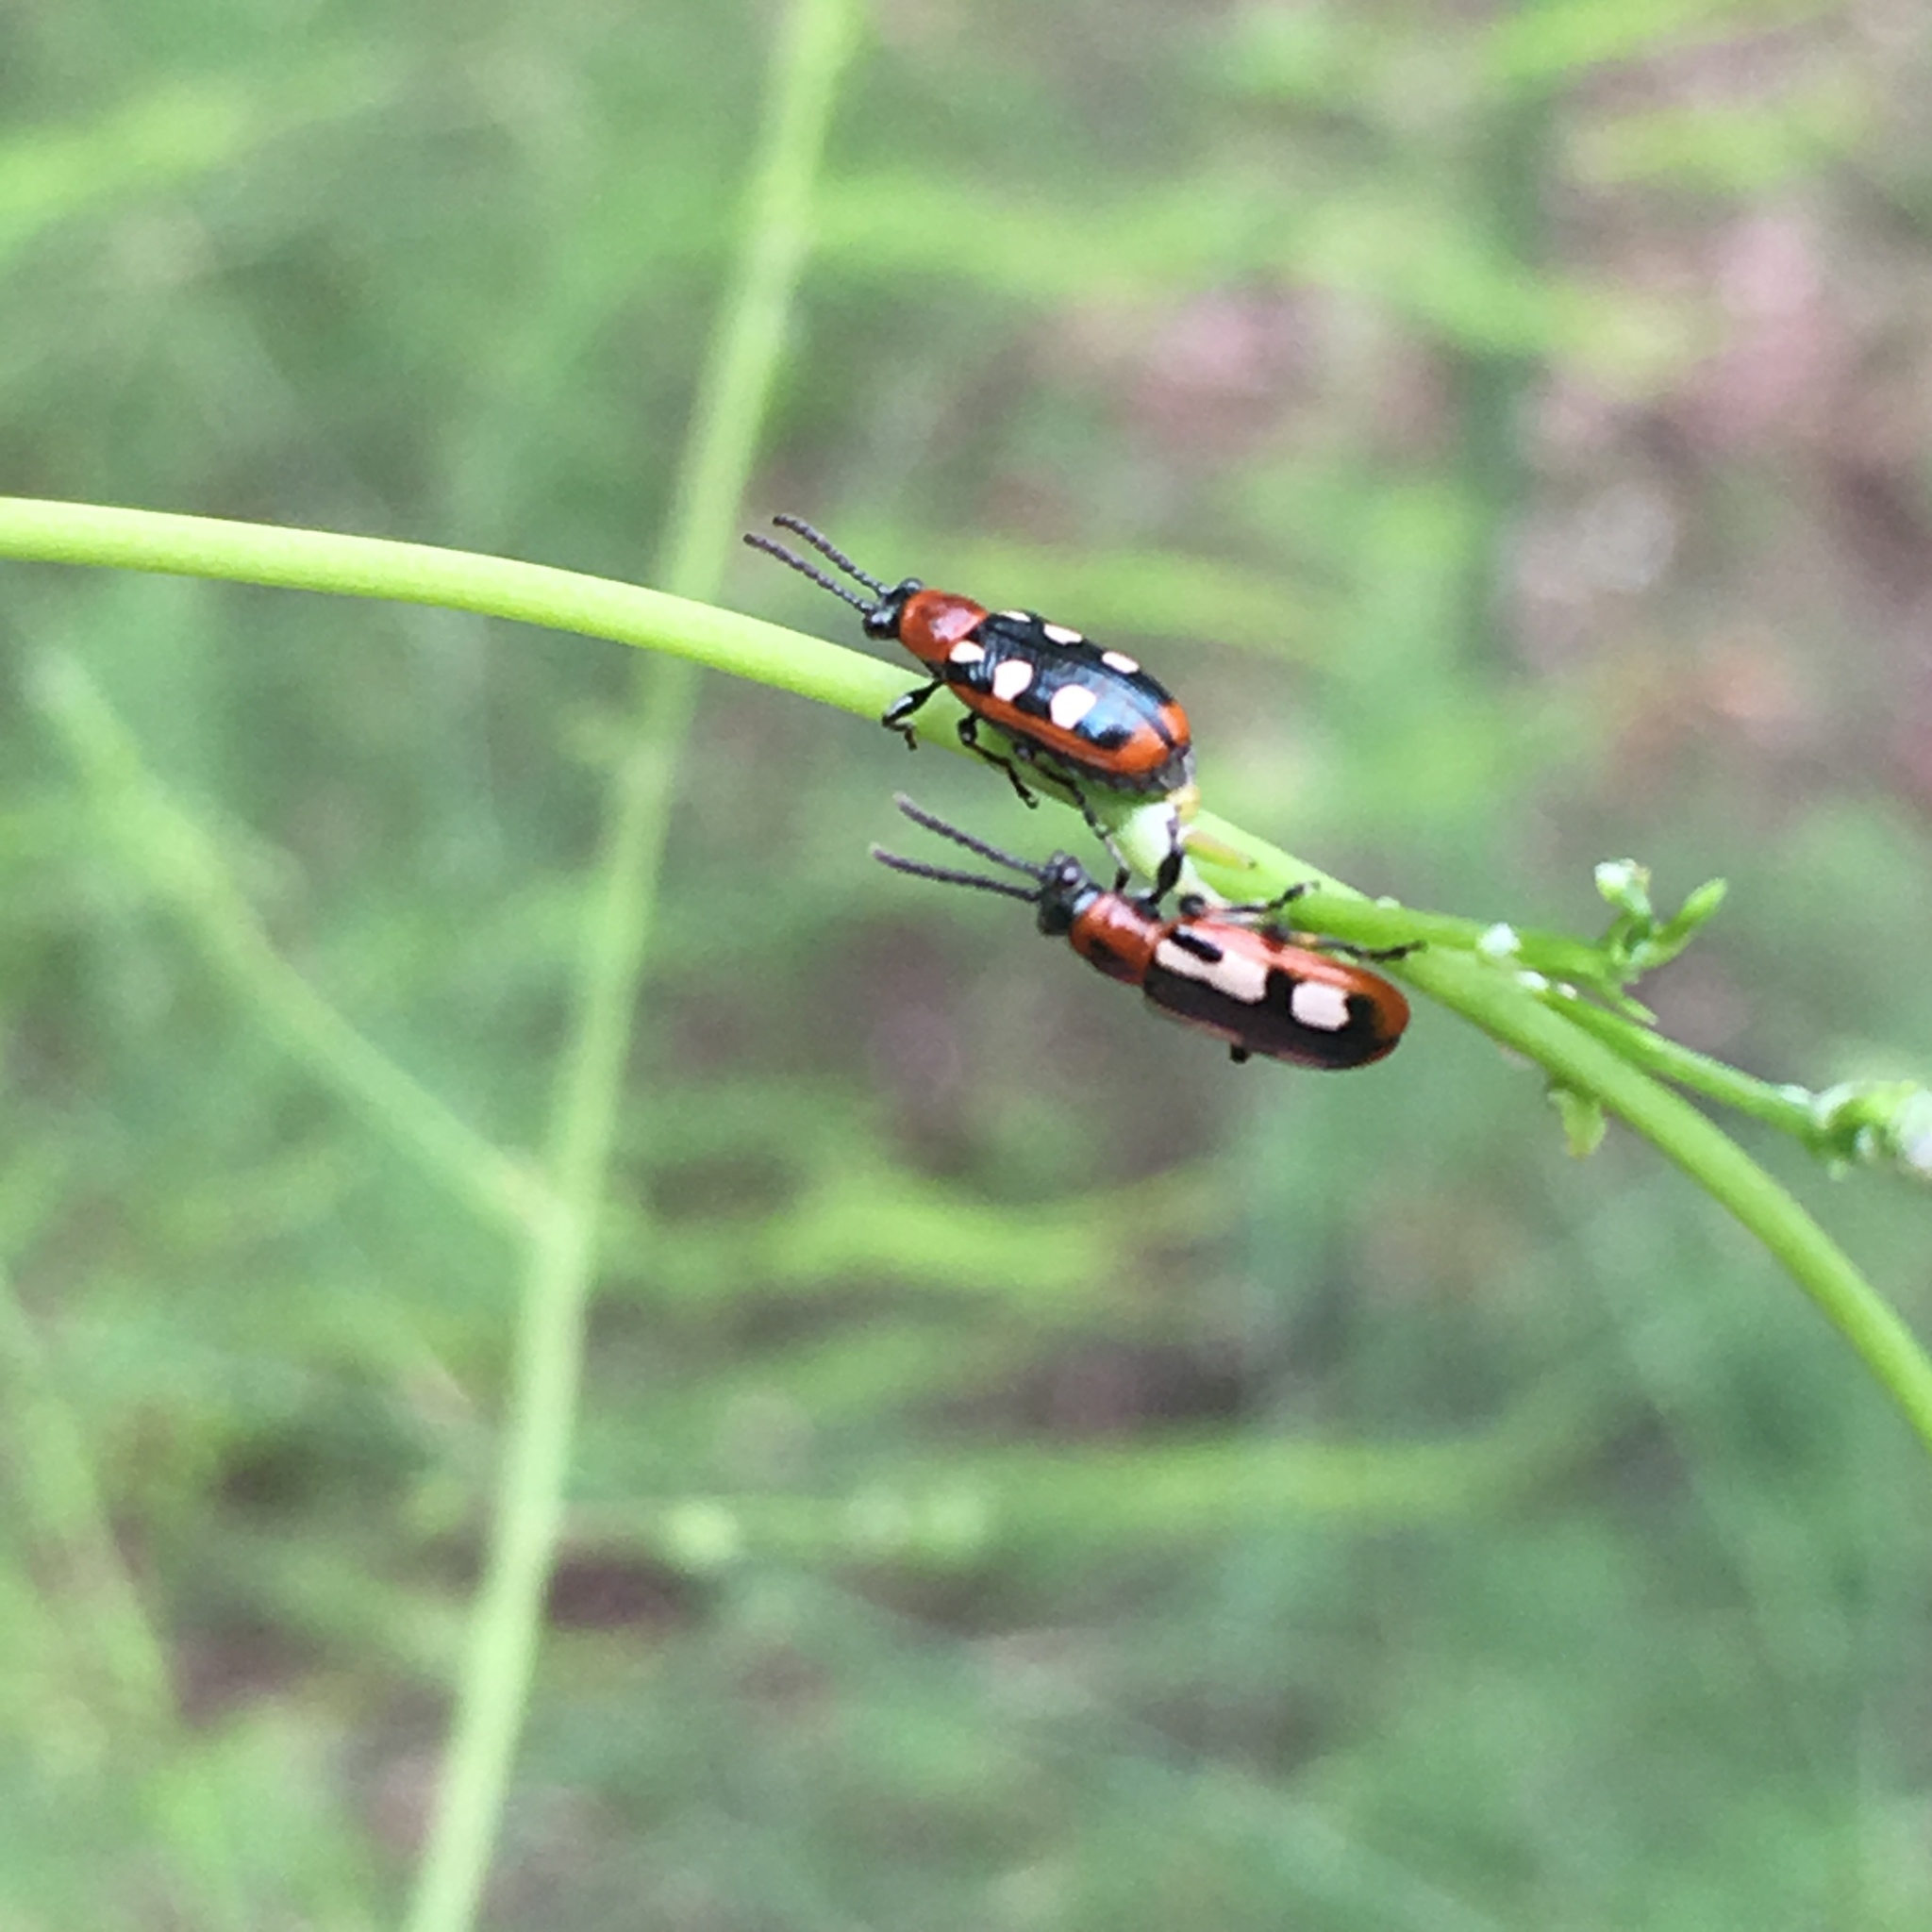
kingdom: Animalia
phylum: Arthropoda
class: Insecta
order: Coleoptera
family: Chrysomelidae
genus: Crioceris
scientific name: Crioceris asparagi
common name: Asparagus beetle
